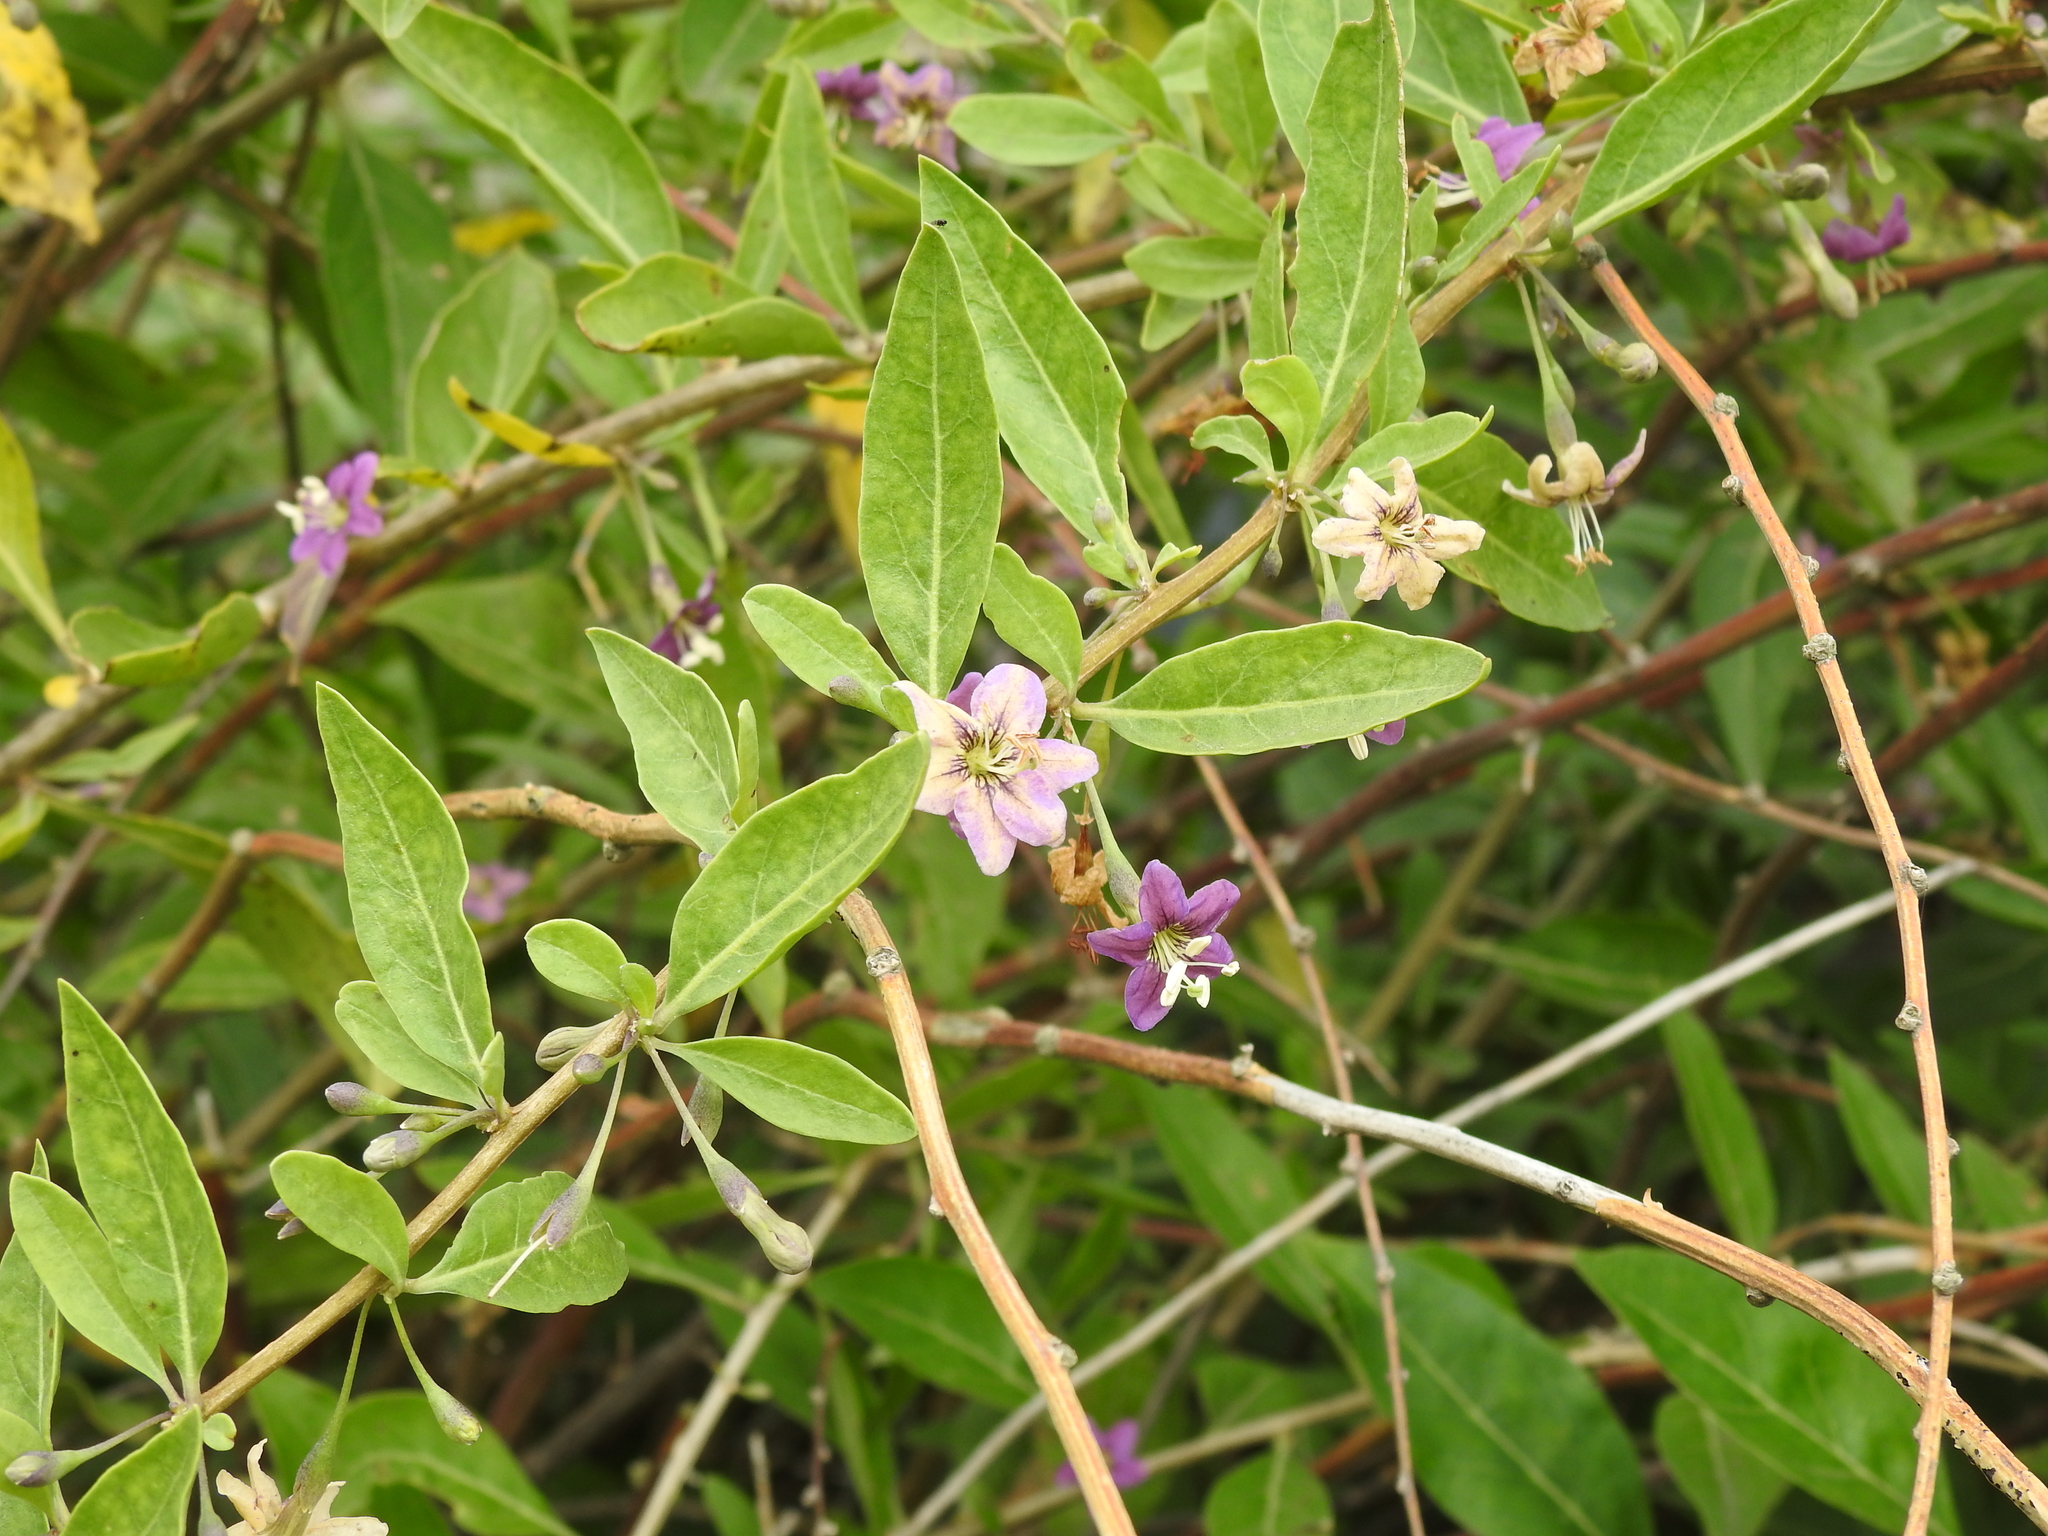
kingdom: Plantae
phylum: Tracheophyta
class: Magnoliopsida
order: Solanales
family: Solanaceae
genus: Lycium
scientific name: Lycium barbarum
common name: Duke of argyll's teaplant
